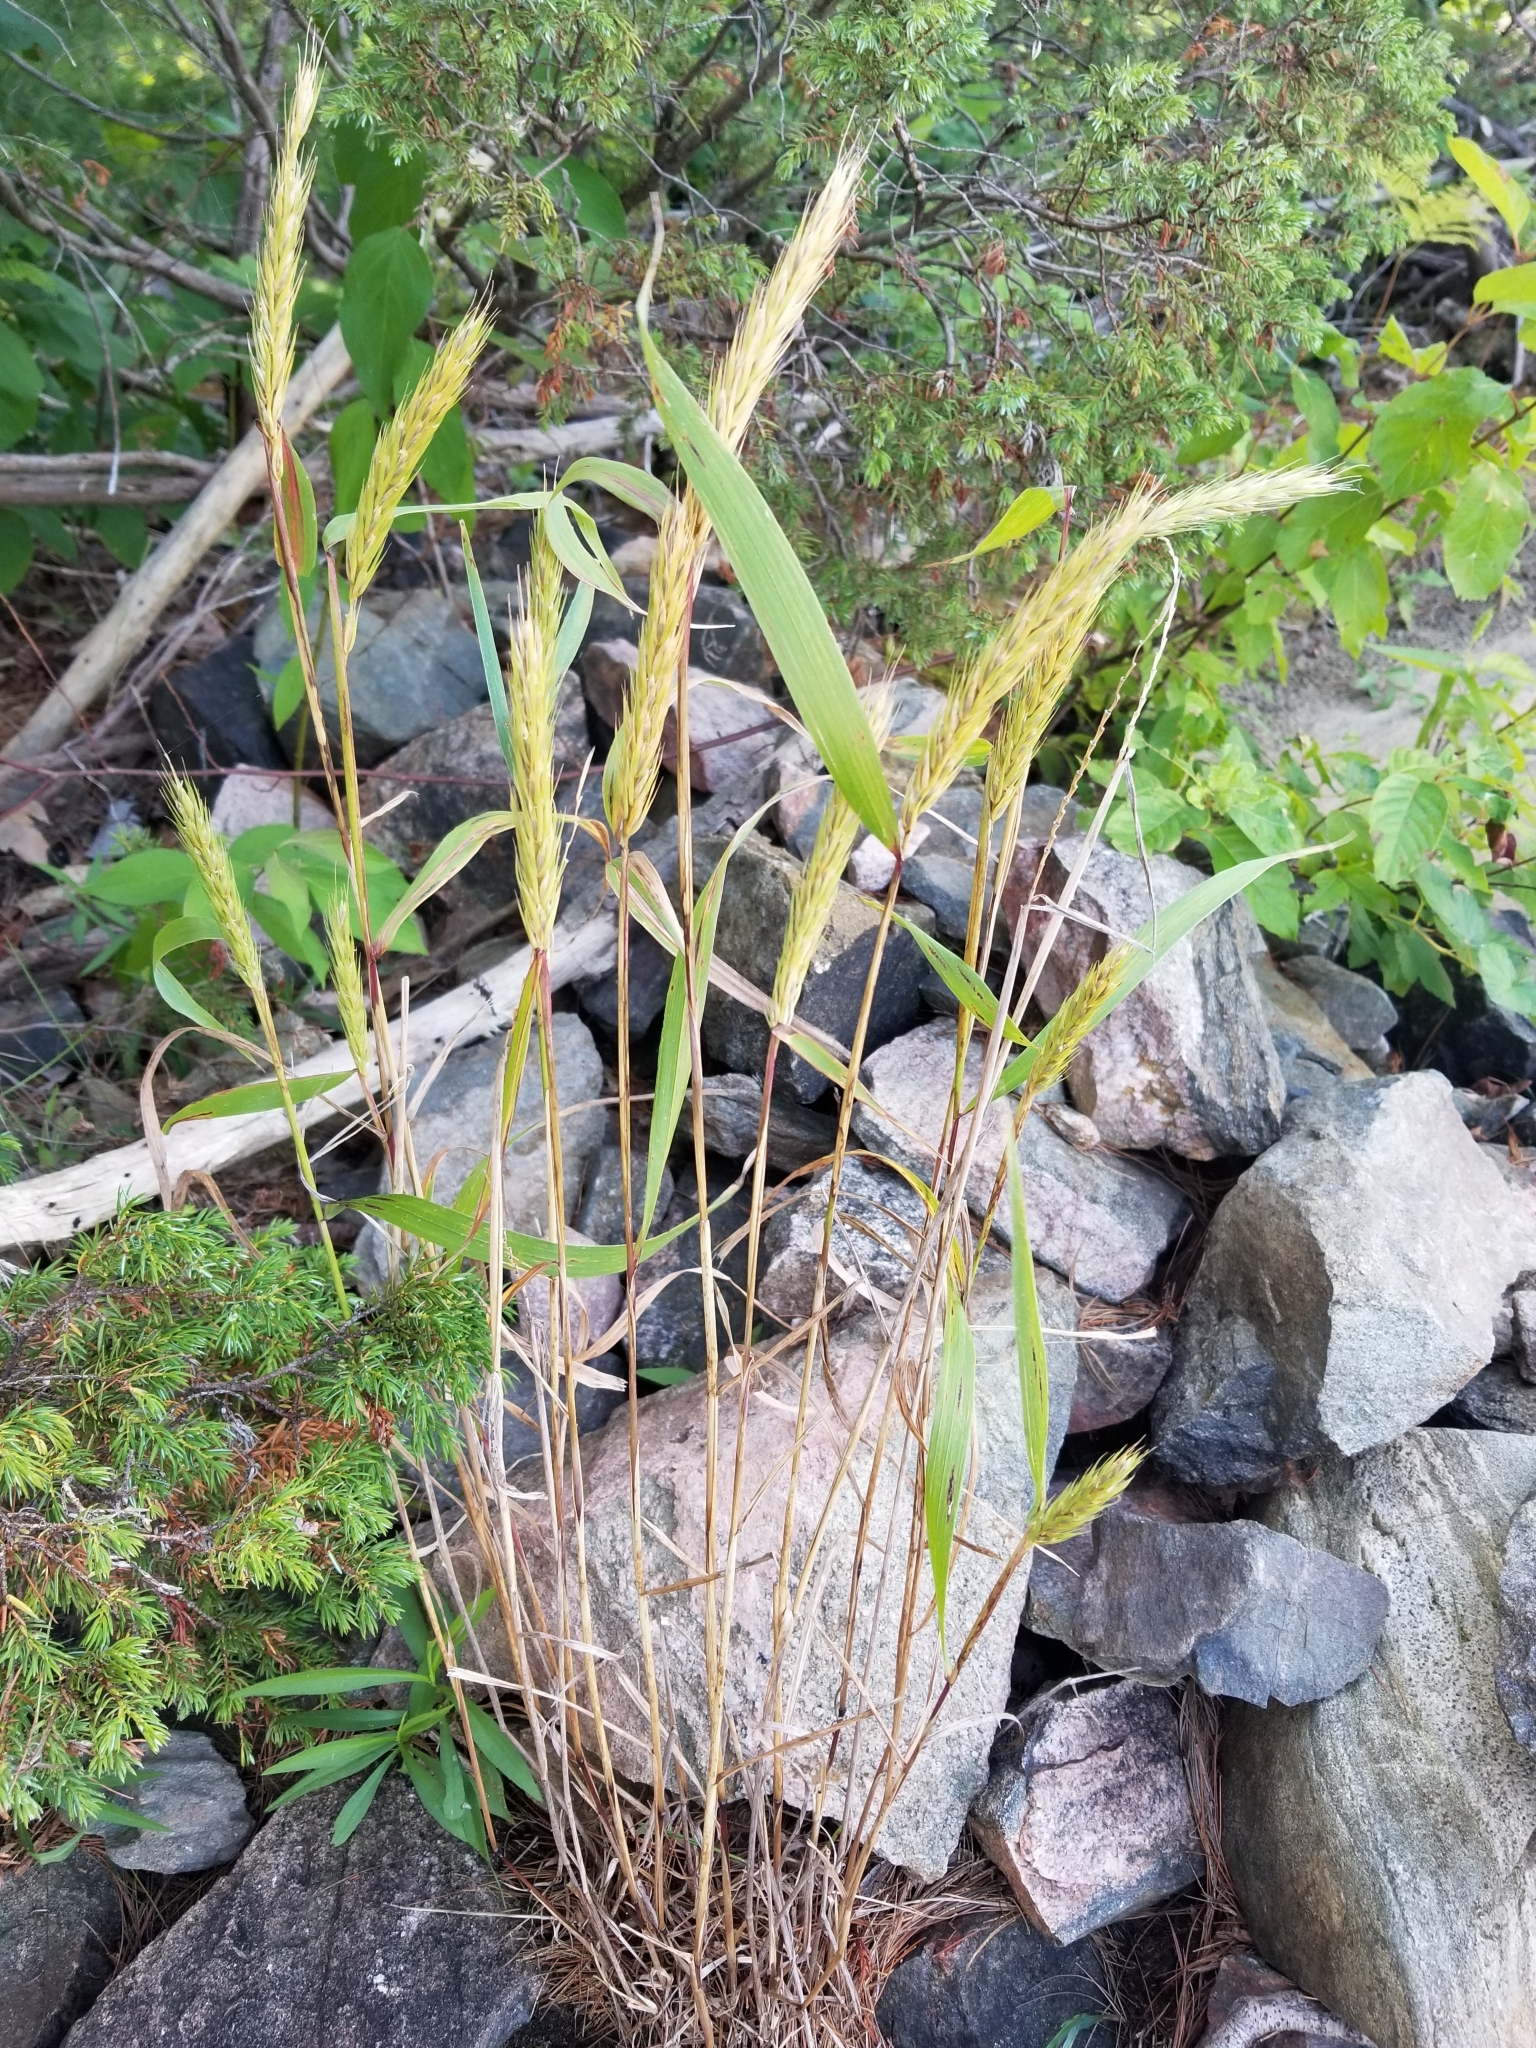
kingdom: Plantae
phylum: Tracheophyta
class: Liliopsida
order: Poales
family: Poaceae
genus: Elymus
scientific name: Elymus virginicus
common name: Common eastern wildrye
